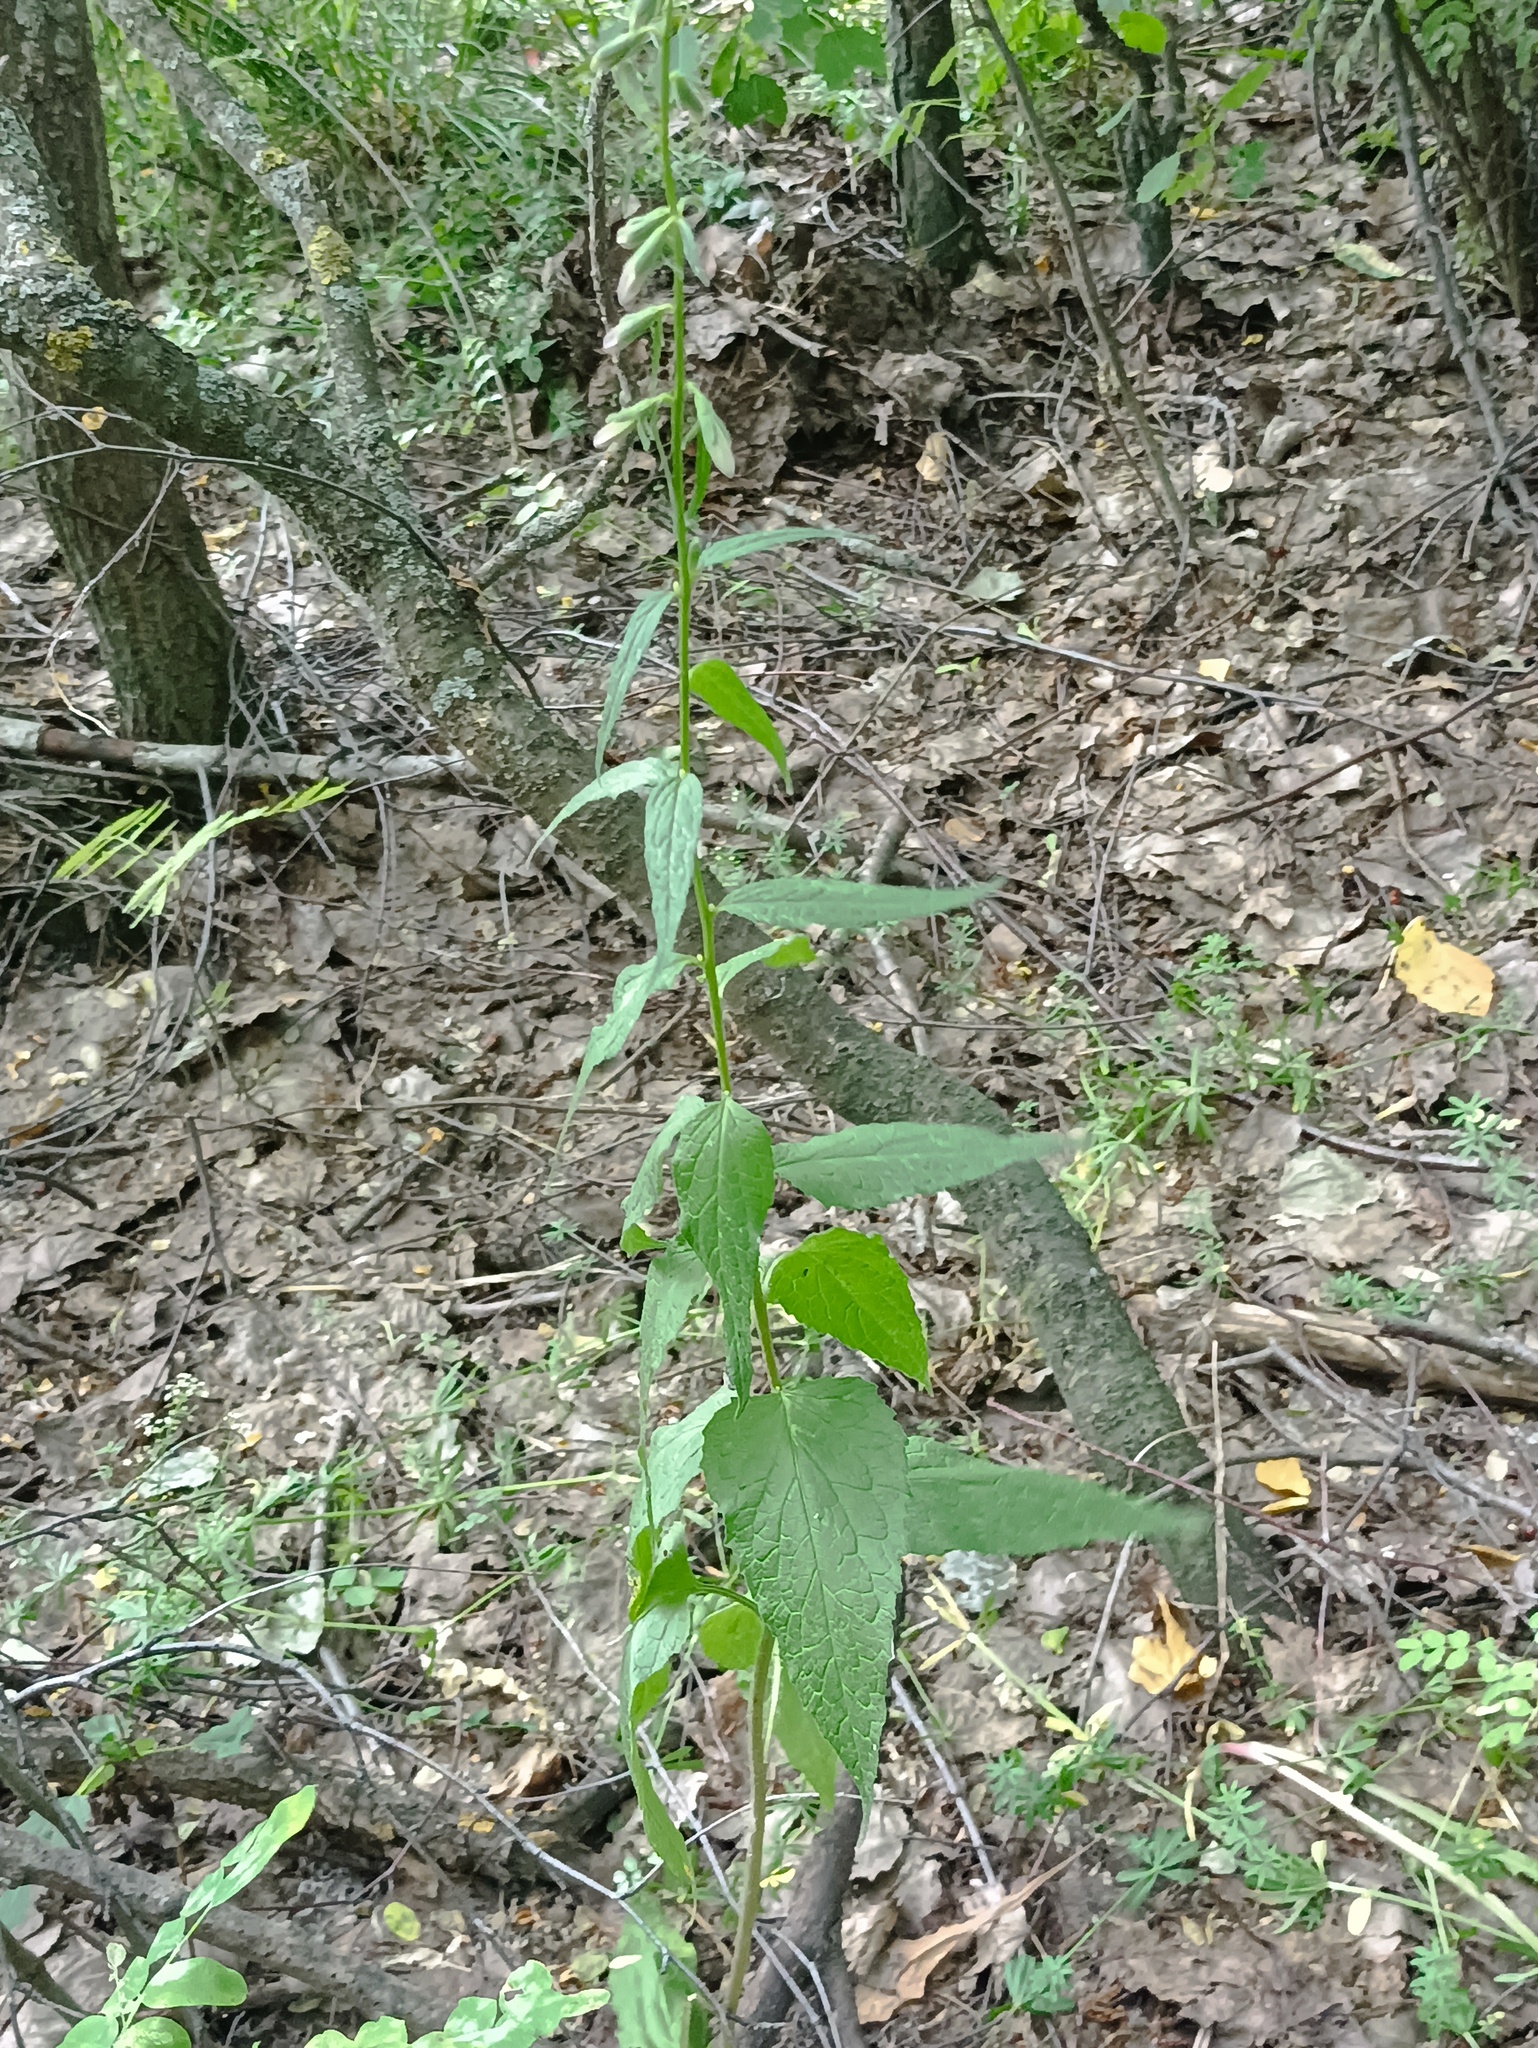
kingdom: Plantae
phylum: Tracheophyta
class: Magnoliopsida
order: Asterales
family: Campanulaceae
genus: Campanula
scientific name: Campanula rapunculoides
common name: Creeping bellflower
